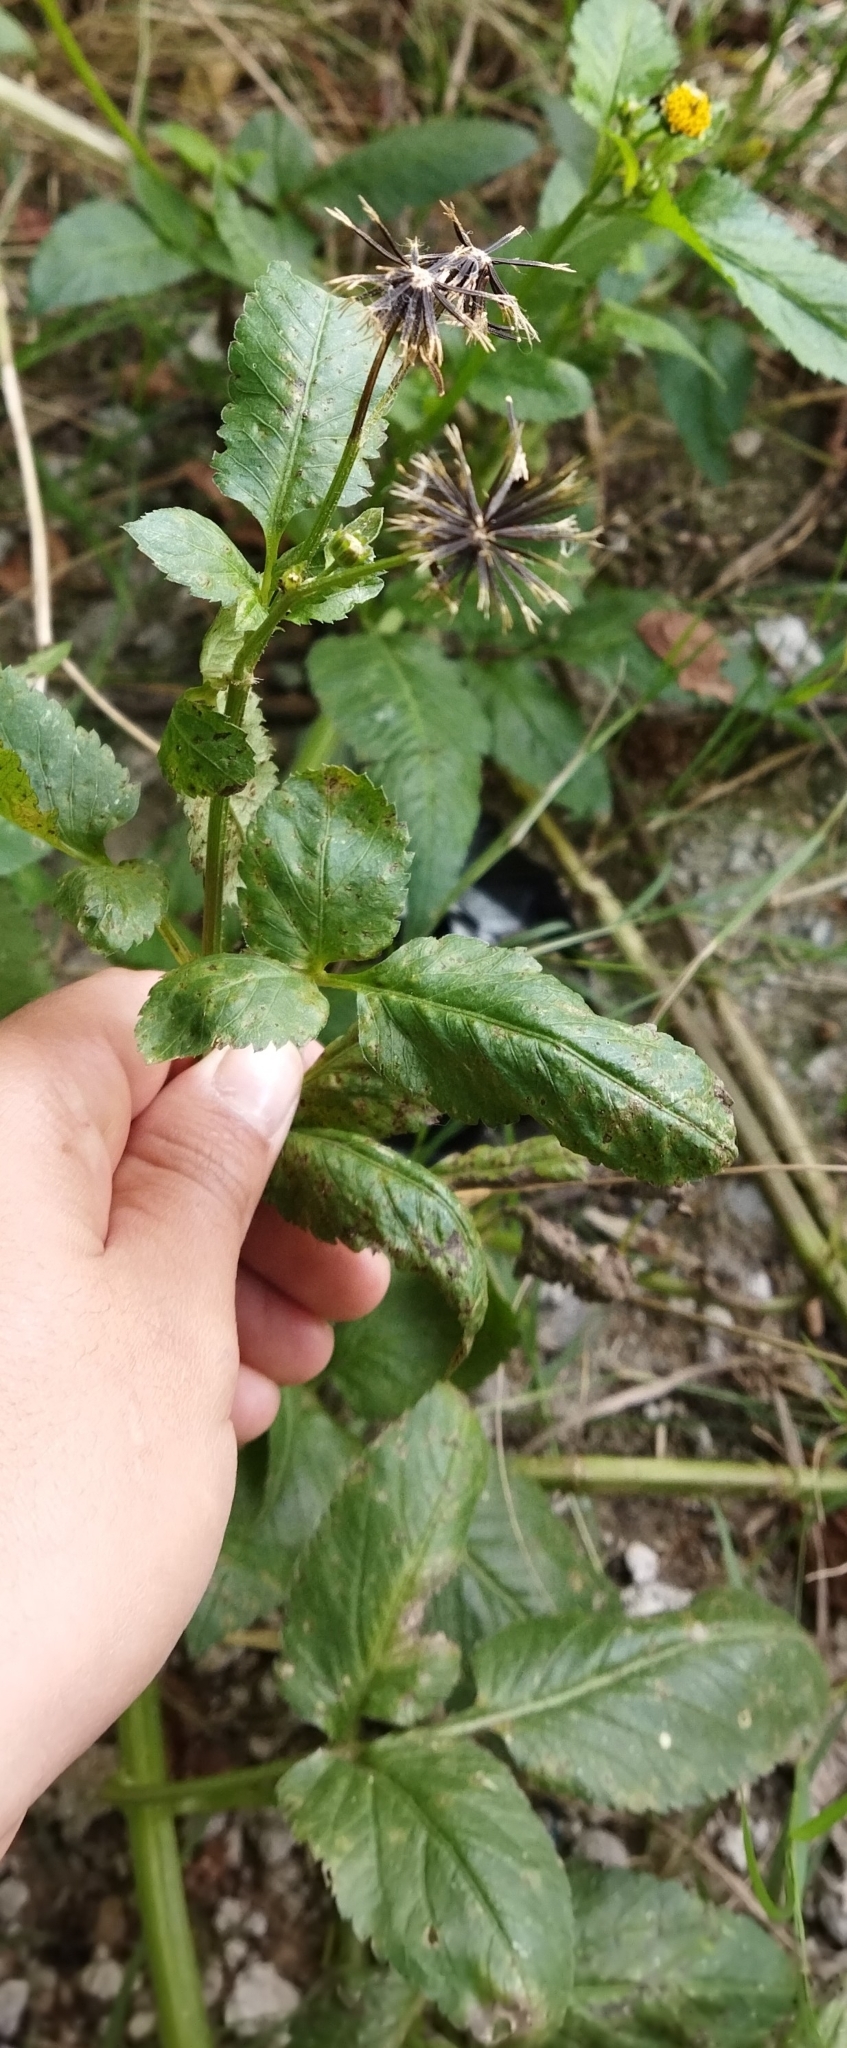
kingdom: Plantae
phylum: Tracheophyta
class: Magnoliopsida
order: Asterales
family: Asteraceae
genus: Bidens
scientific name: Bidens pilosa
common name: Black-jack
